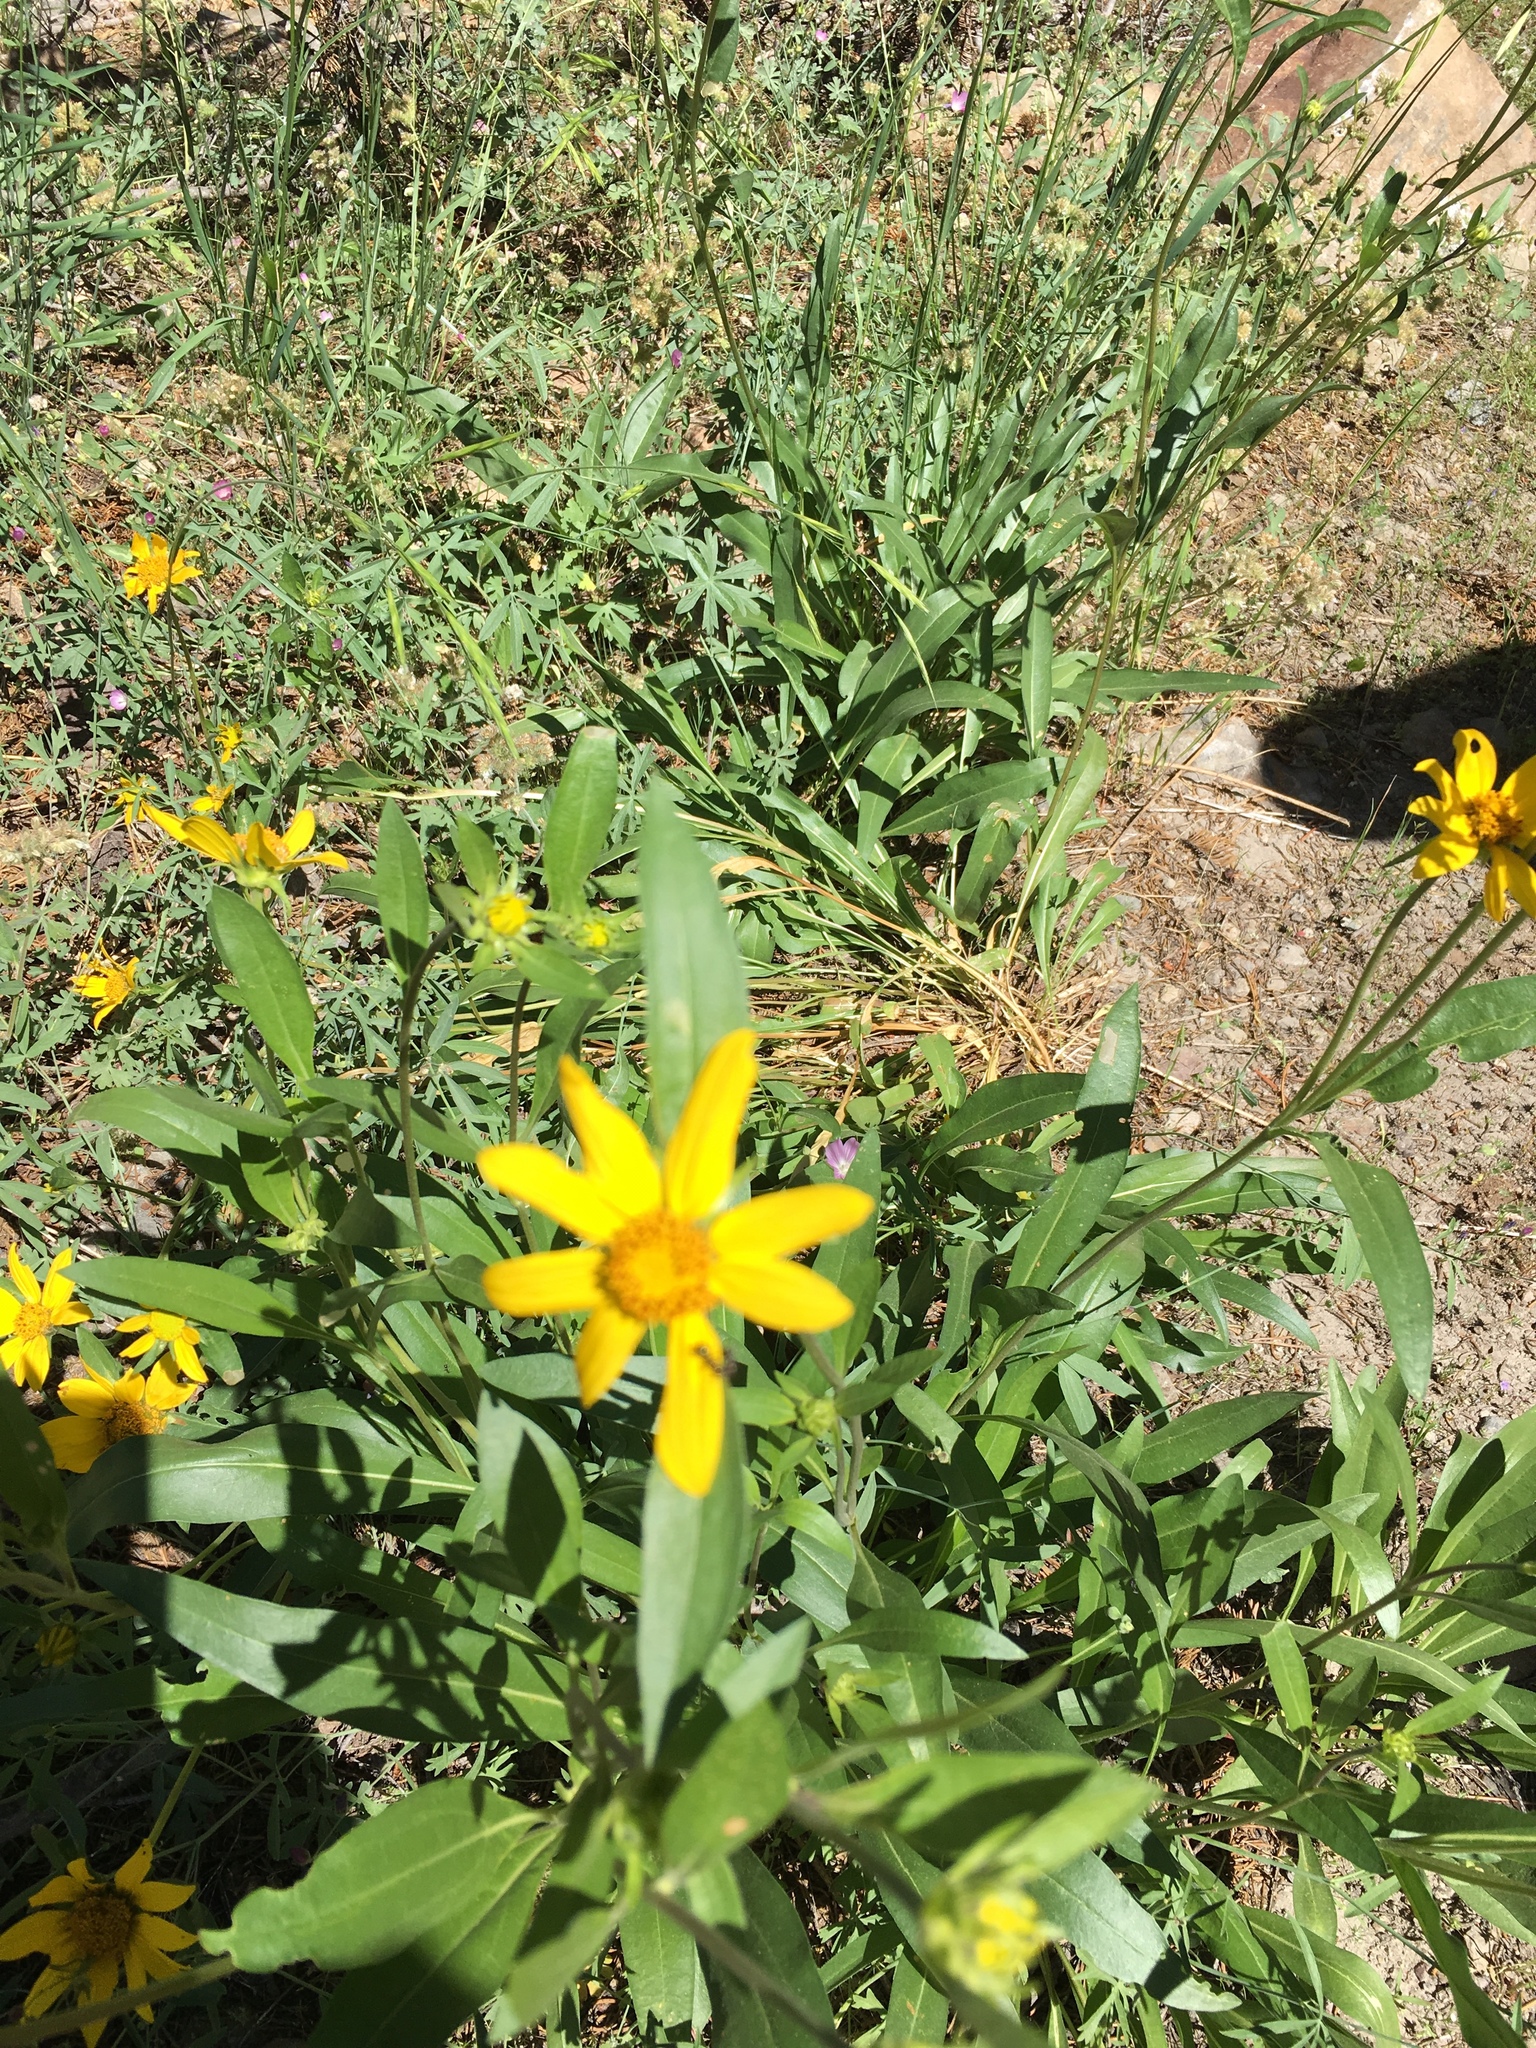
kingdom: Plantae
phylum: Tracheophyta
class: Magnoliopsida
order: Asterales
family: Asteraceae
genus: Helianthella
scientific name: Helianthella californica
